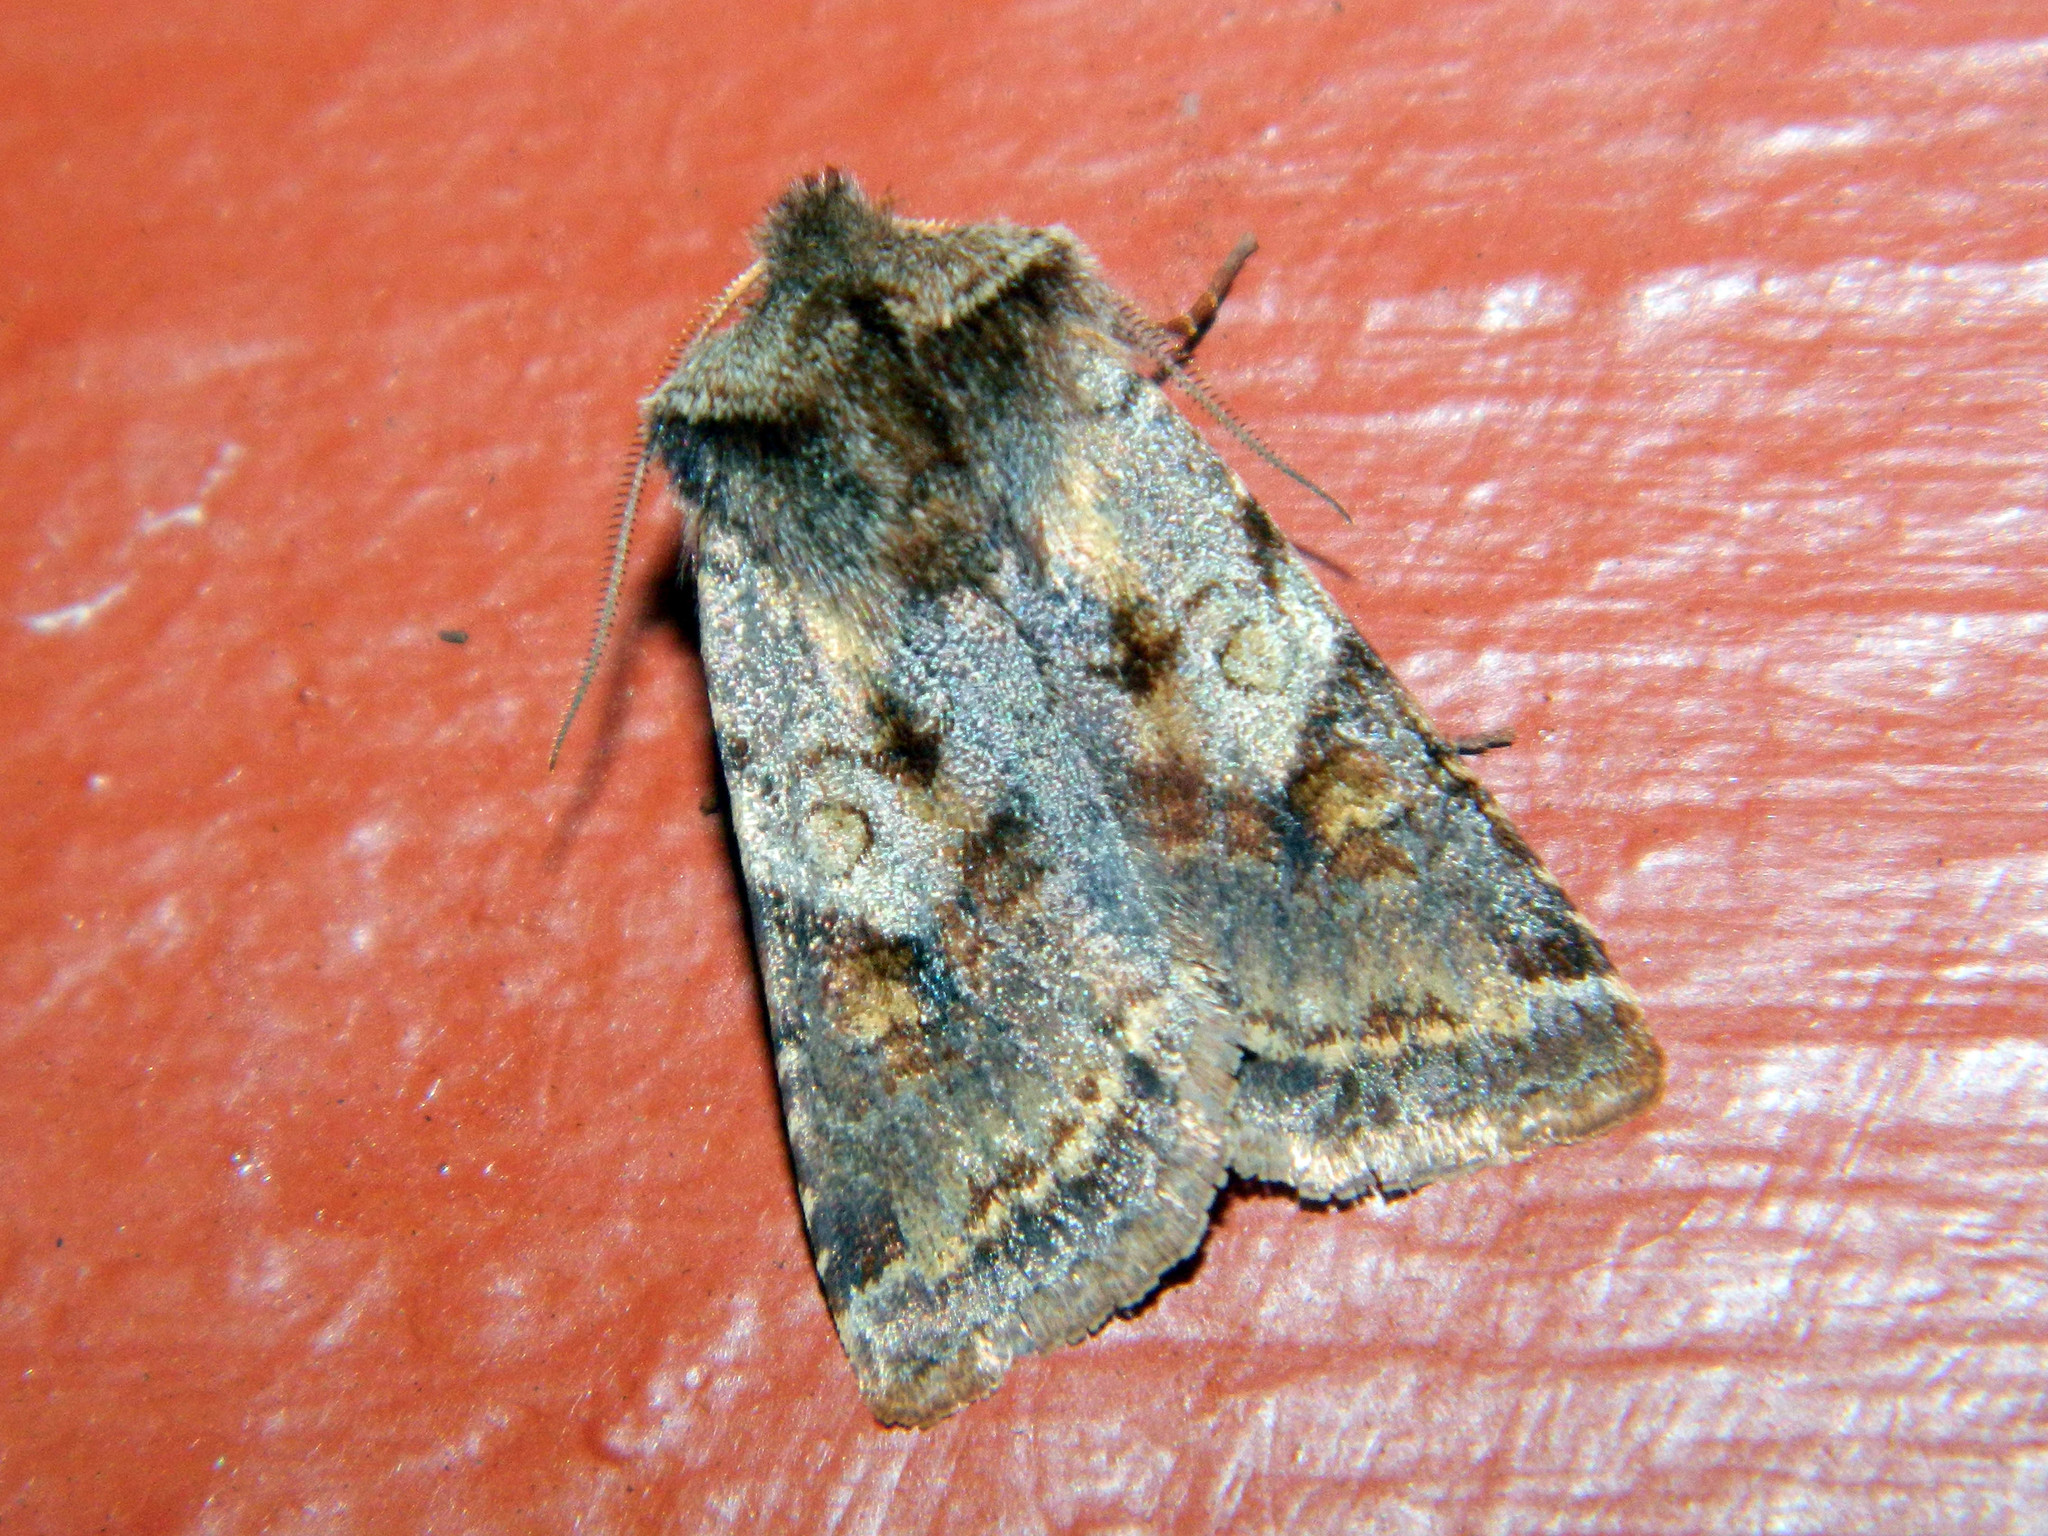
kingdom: Animalia
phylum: Arthropoda
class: Insecta
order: Lepidoptera
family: Noctuidae
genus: Cerastis
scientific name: Cerastis salicarum
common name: Willow dart
